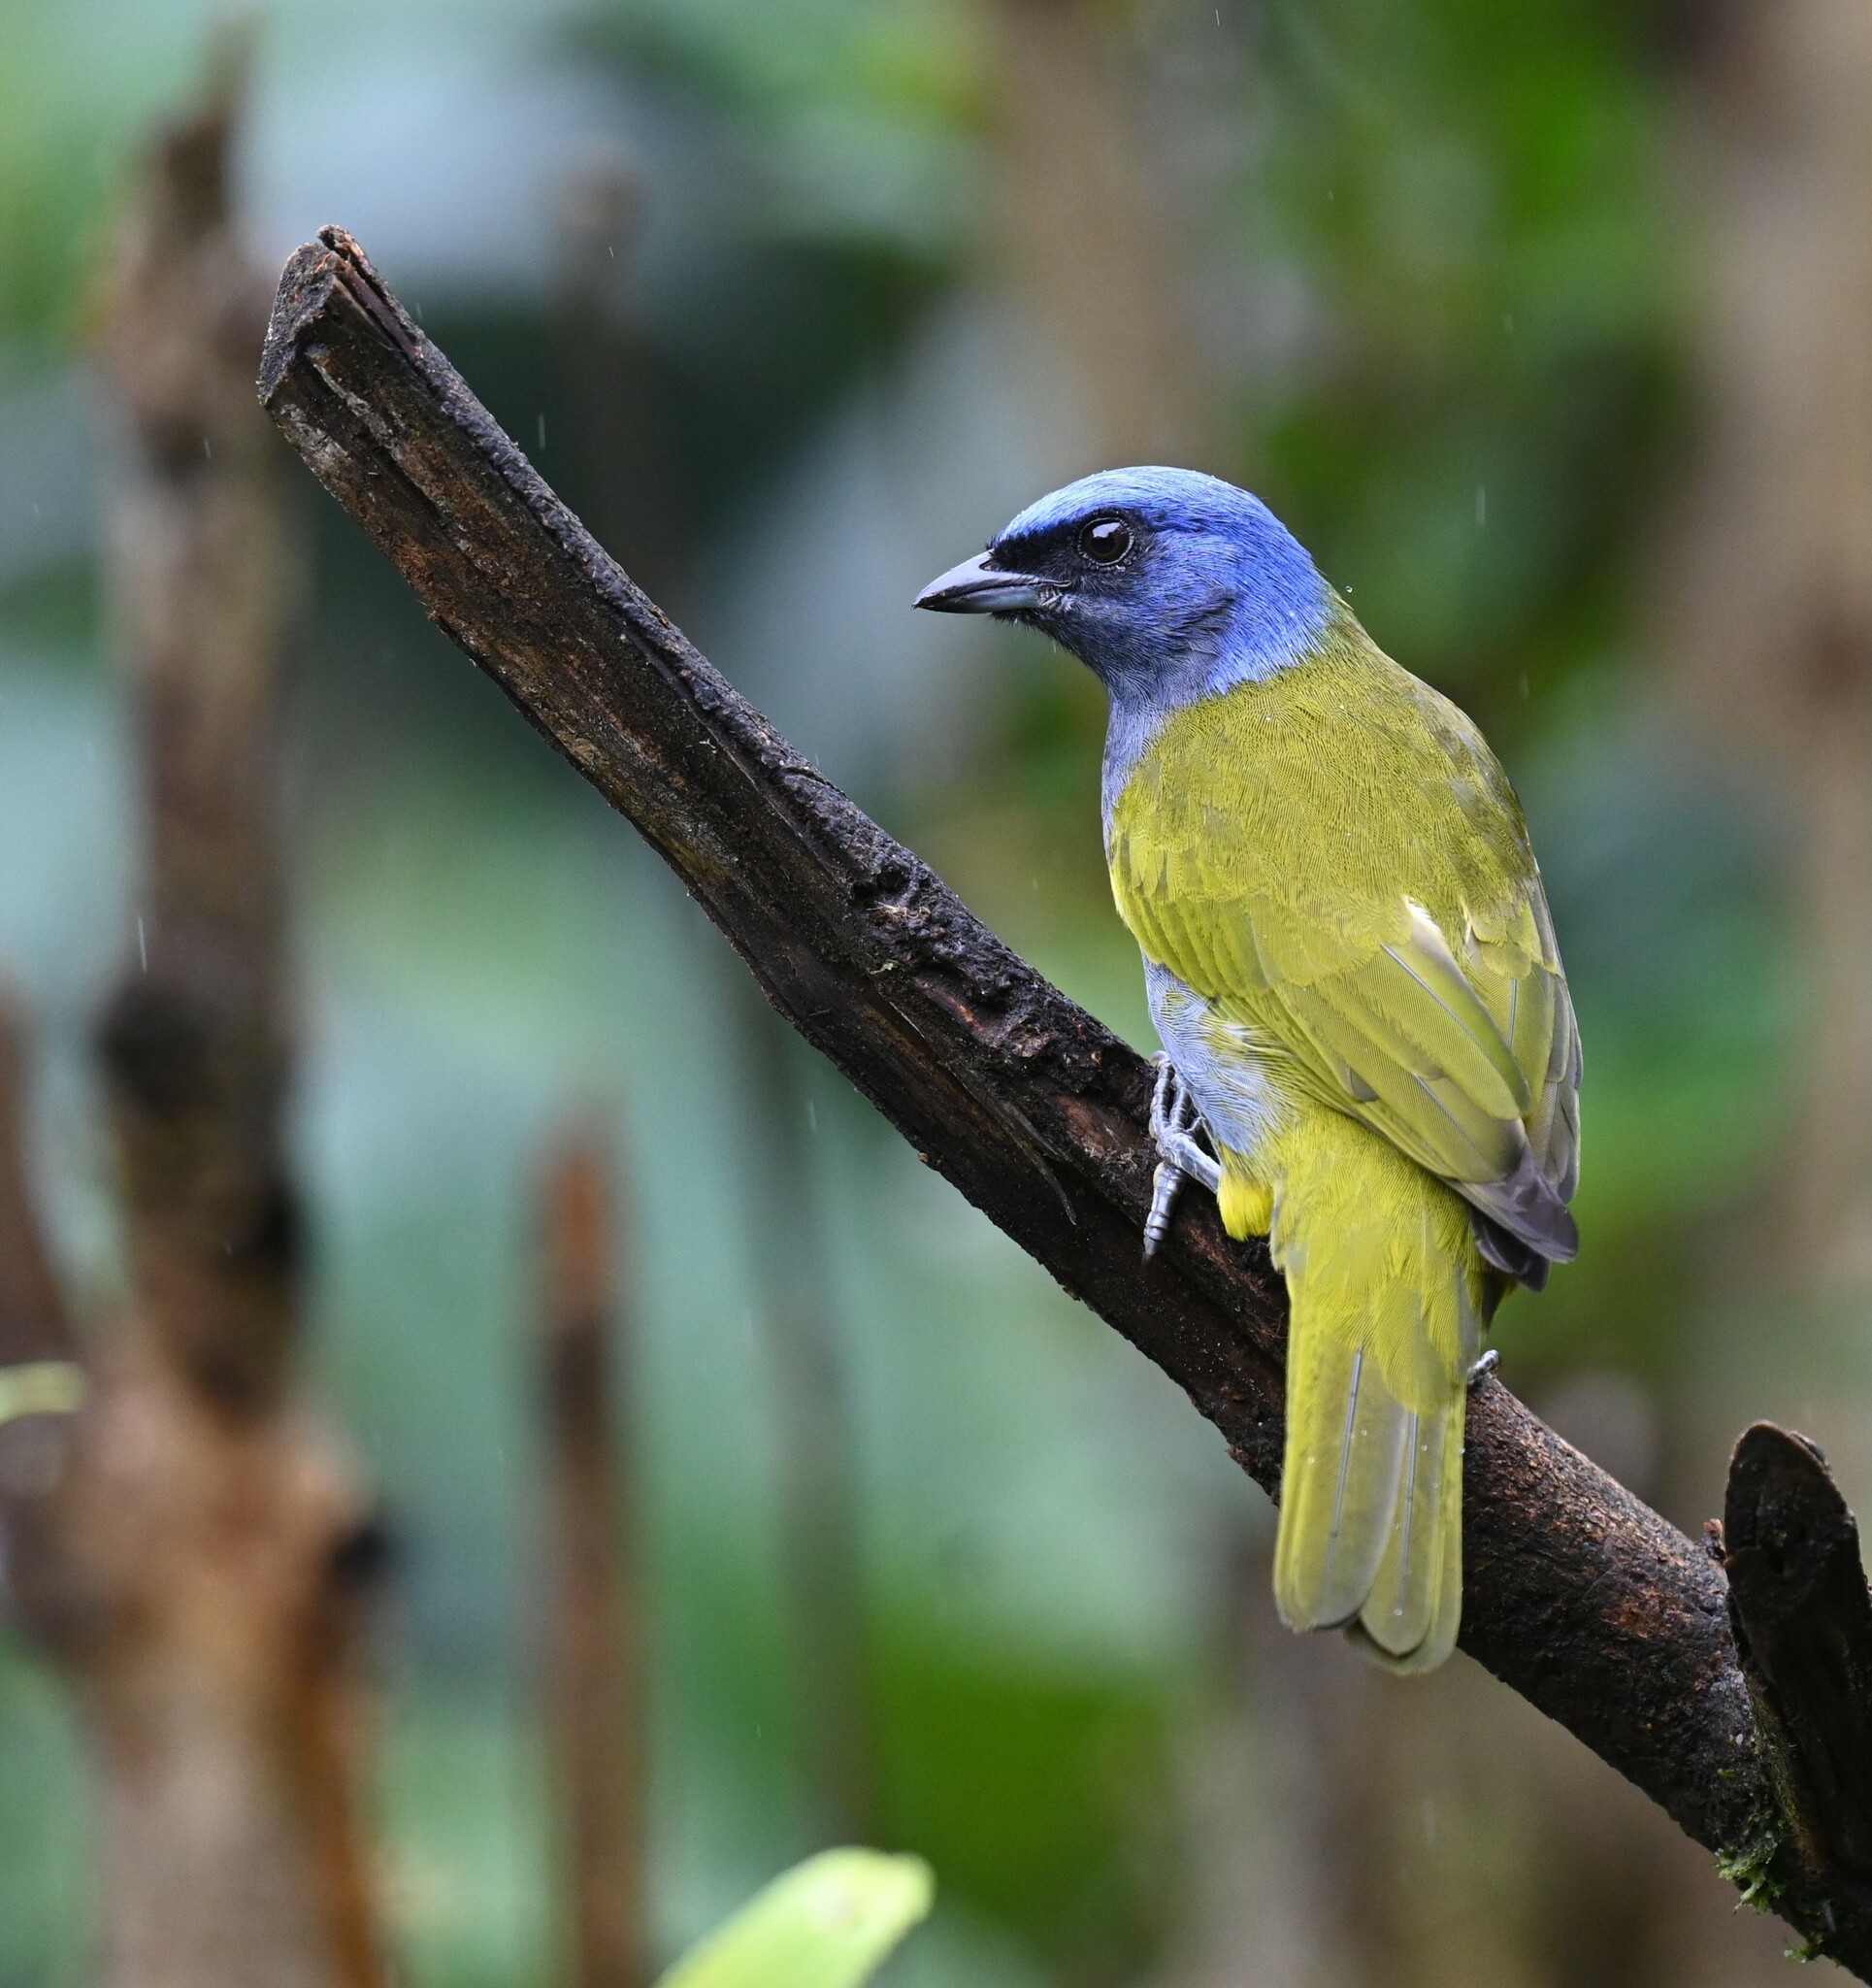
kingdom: Animalia
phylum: Chordata
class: Aves
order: Passeriformes
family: Thraupidae
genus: Sporathraupis
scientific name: Sporathraupis cyanocephala
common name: Blue-capped tanager
